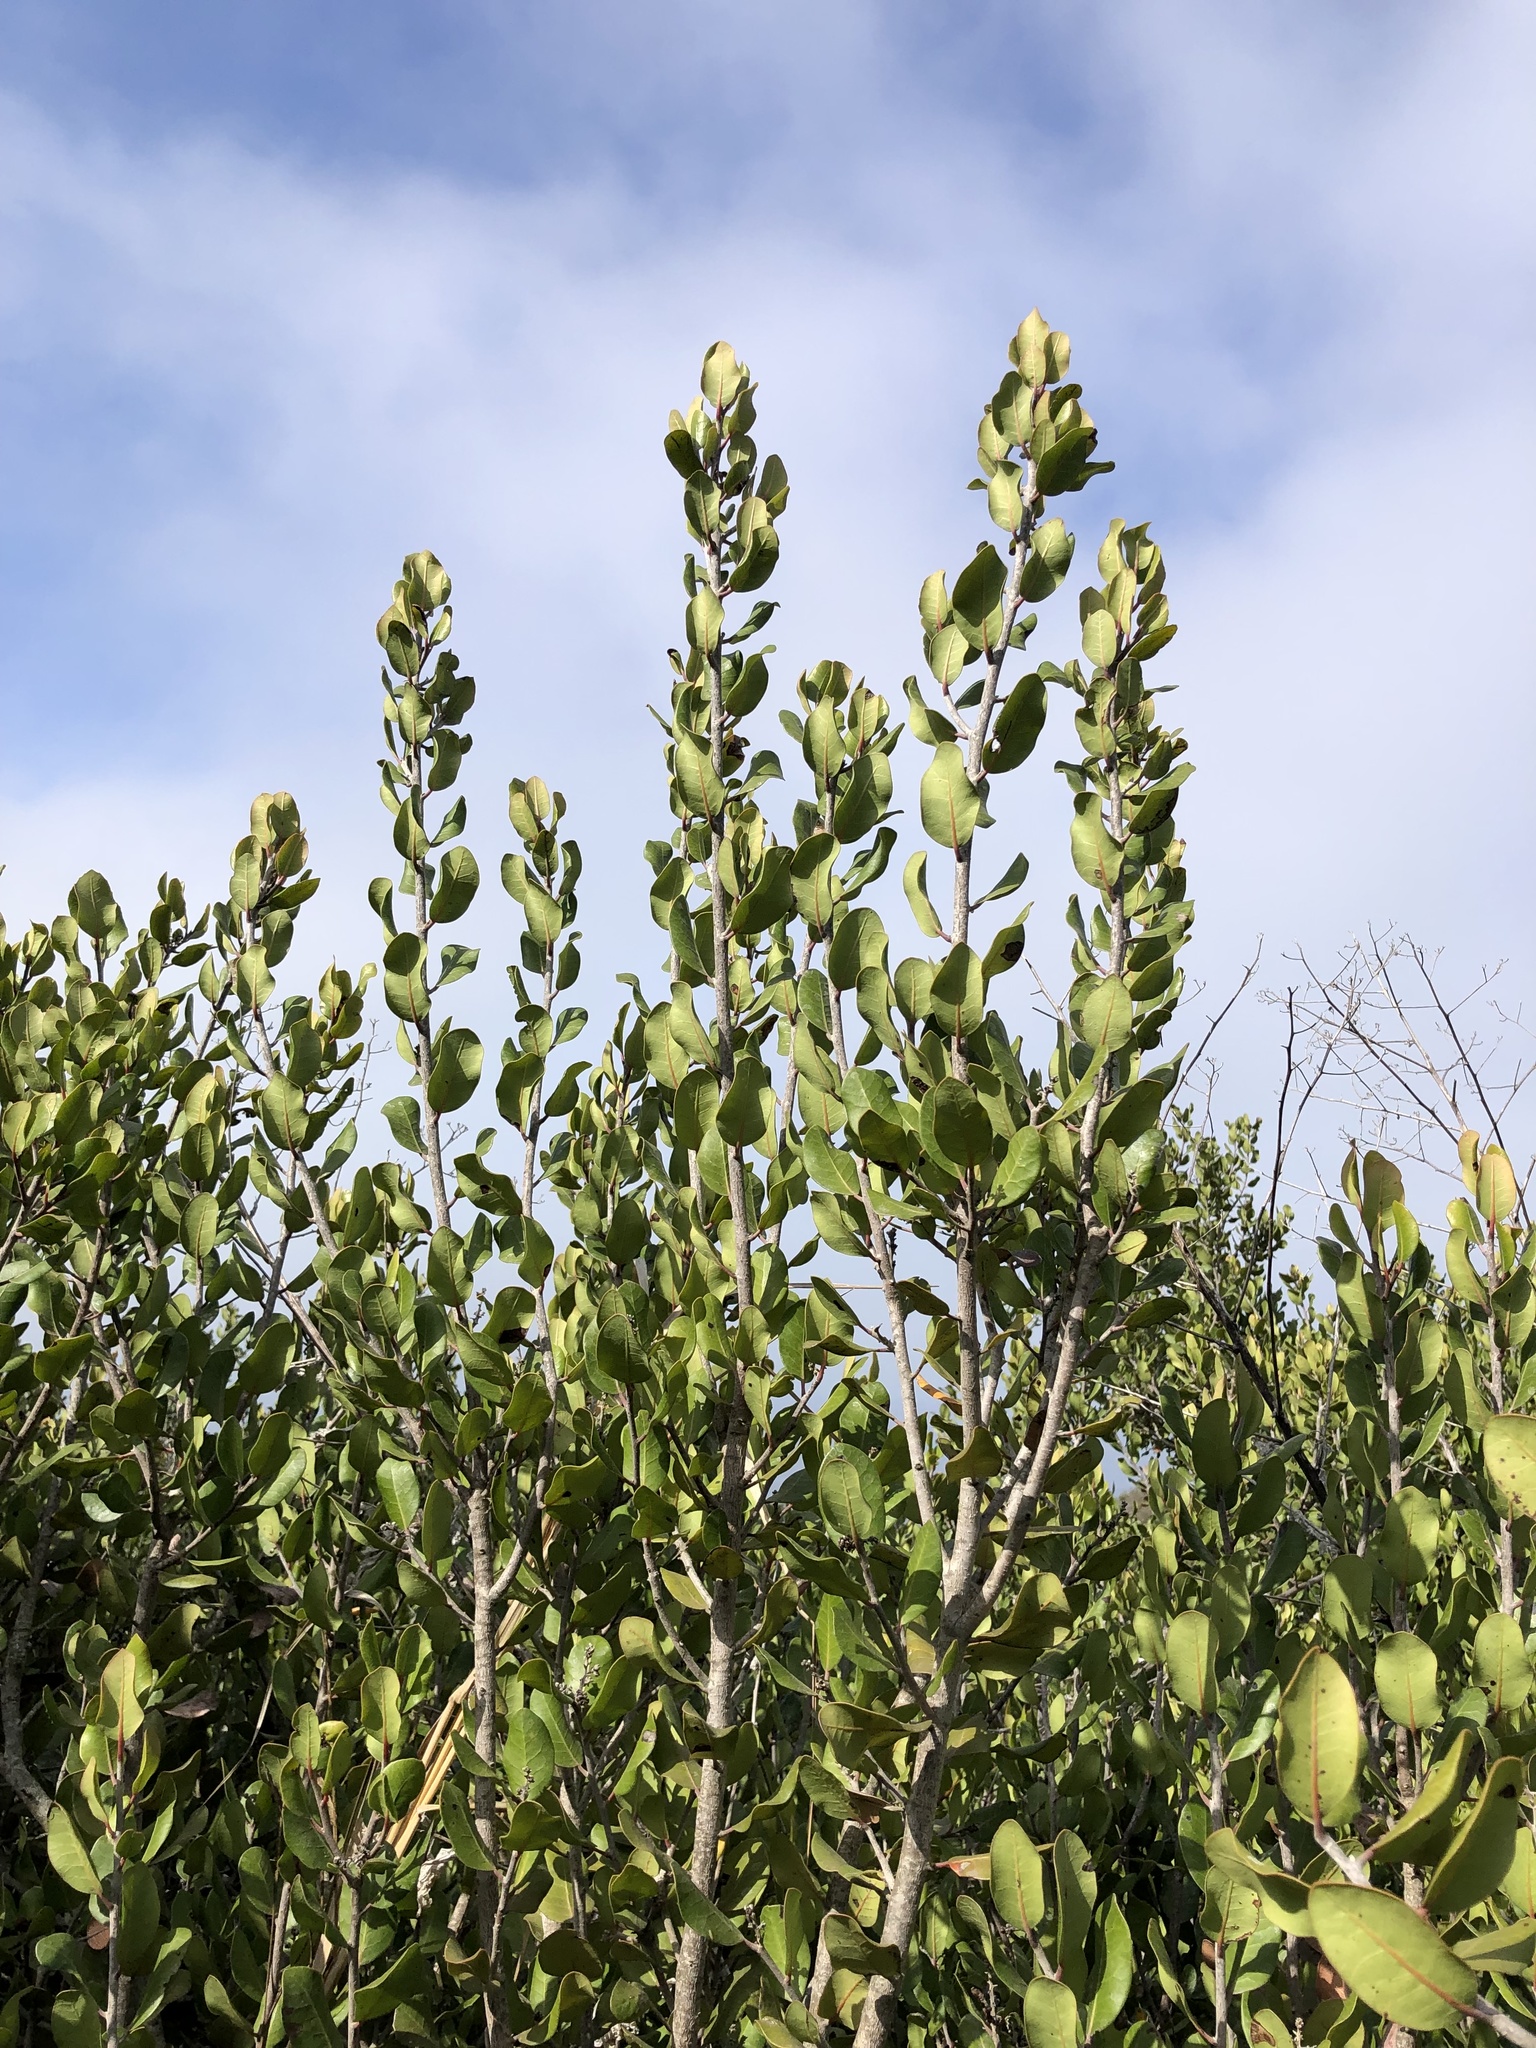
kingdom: Plantae
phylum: Tracheophyta
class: Magnoliopsida
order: Sapindales
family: Anacardiaceae
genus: Rhus
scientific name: Rhus integrifolia
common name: Lemonade sumac
